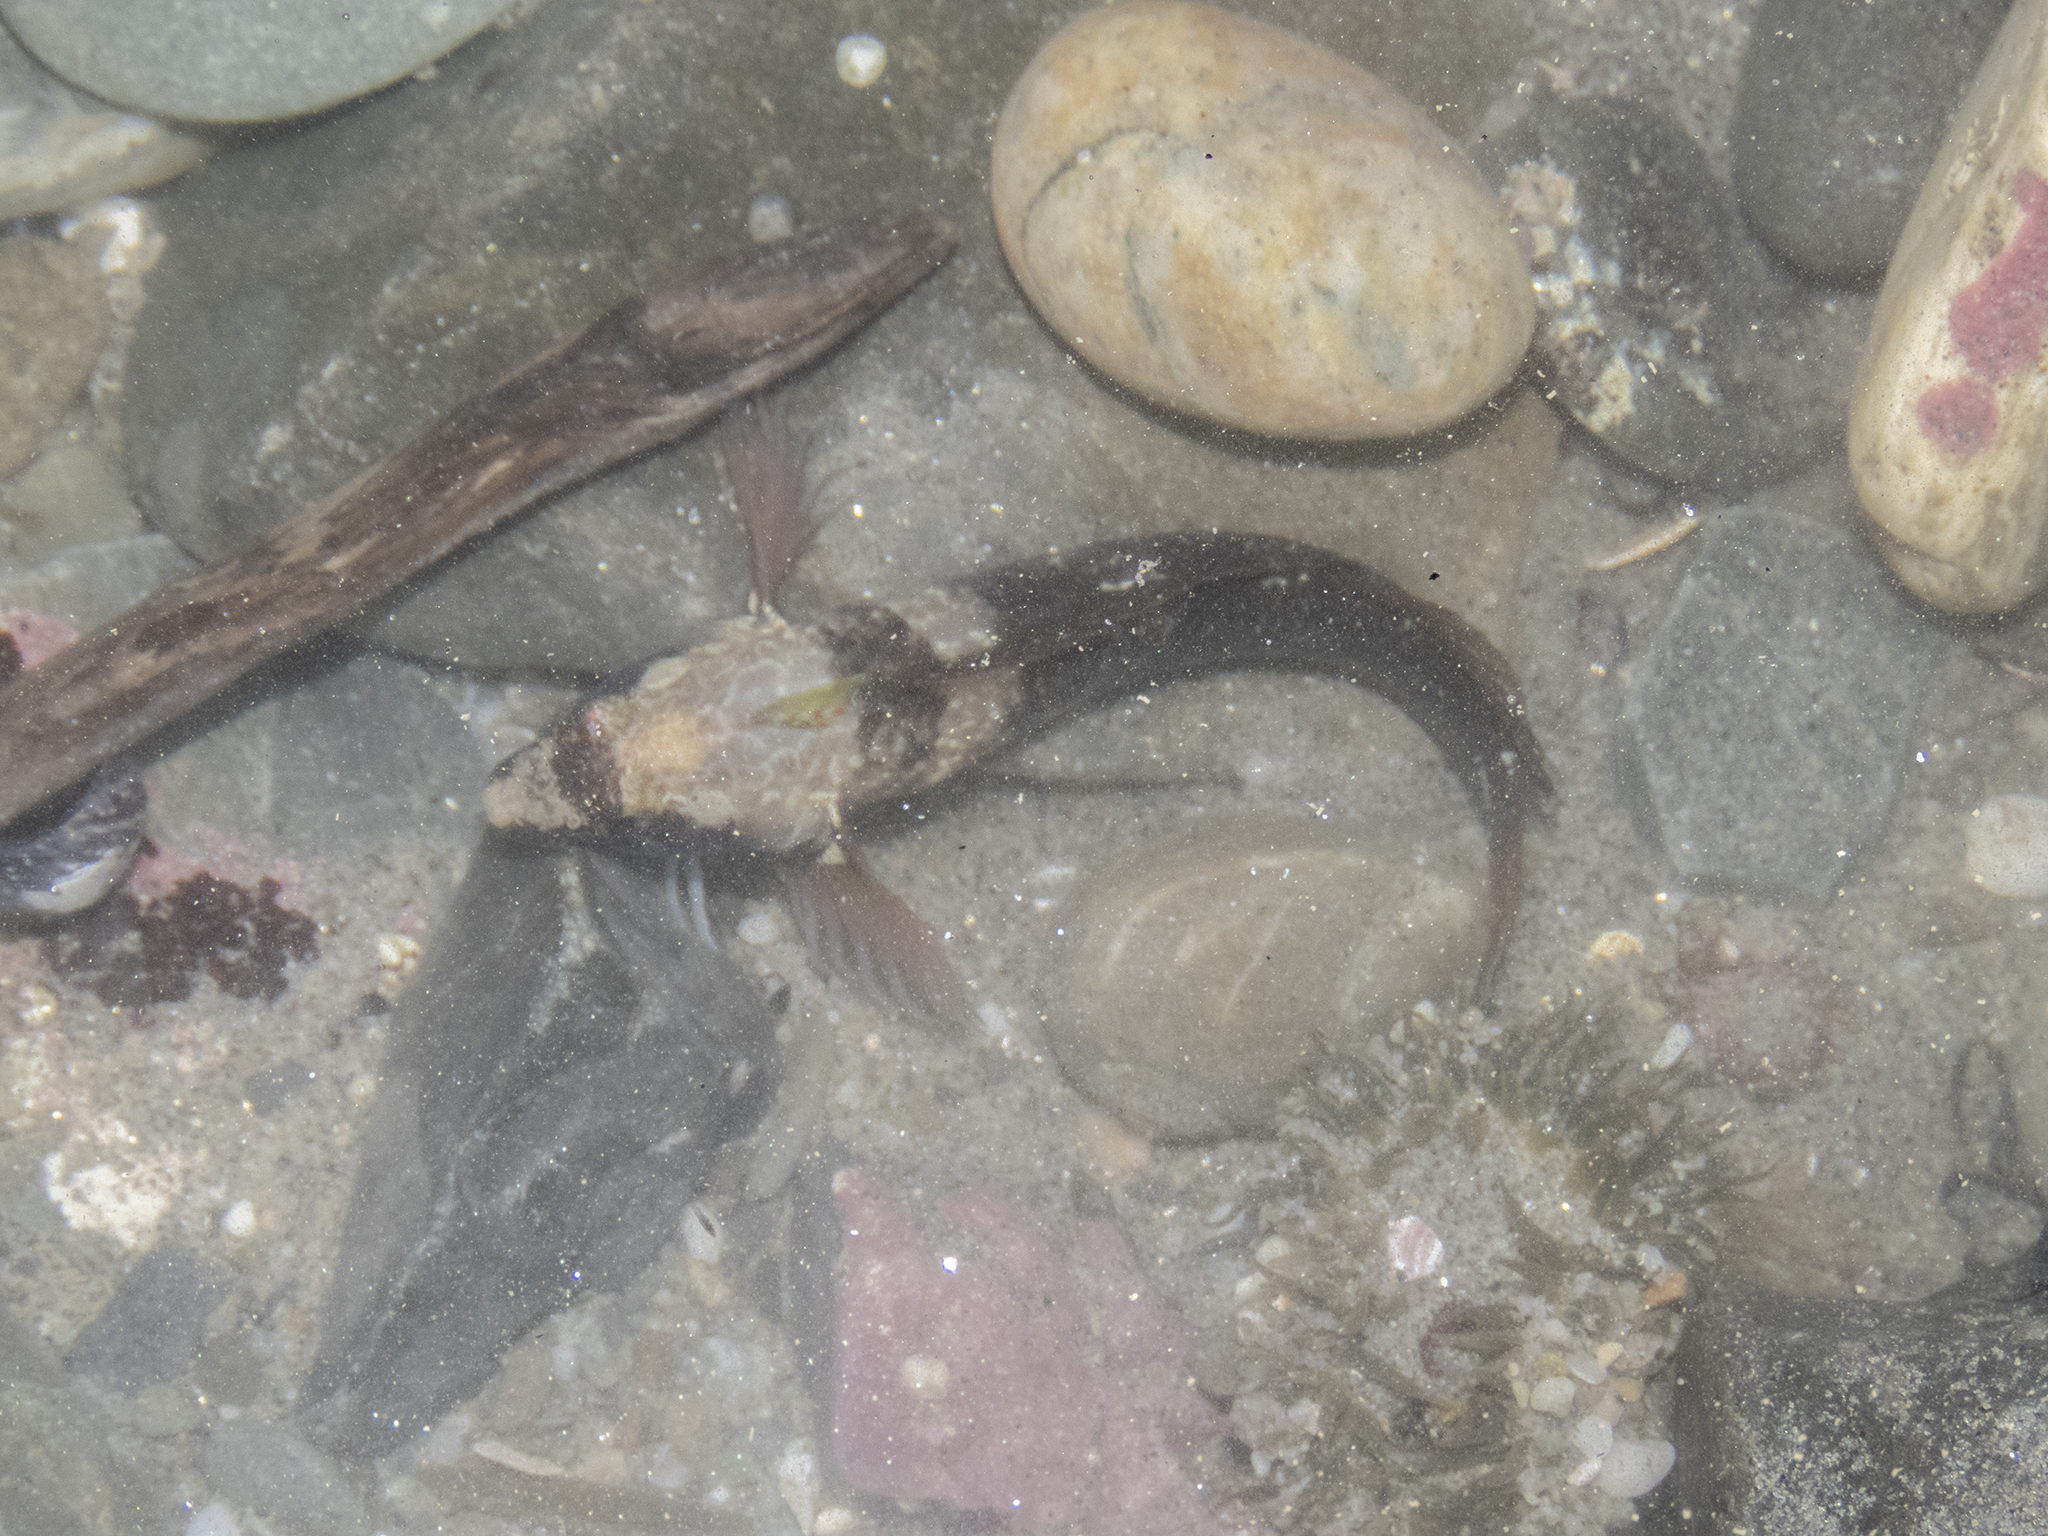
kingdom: Animalia
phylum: Chordata
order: Perciformes
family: Tripterygiidae
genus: Ruanoho
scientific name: Ruanoho decemdigitatus
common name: Longfinned triplefin
